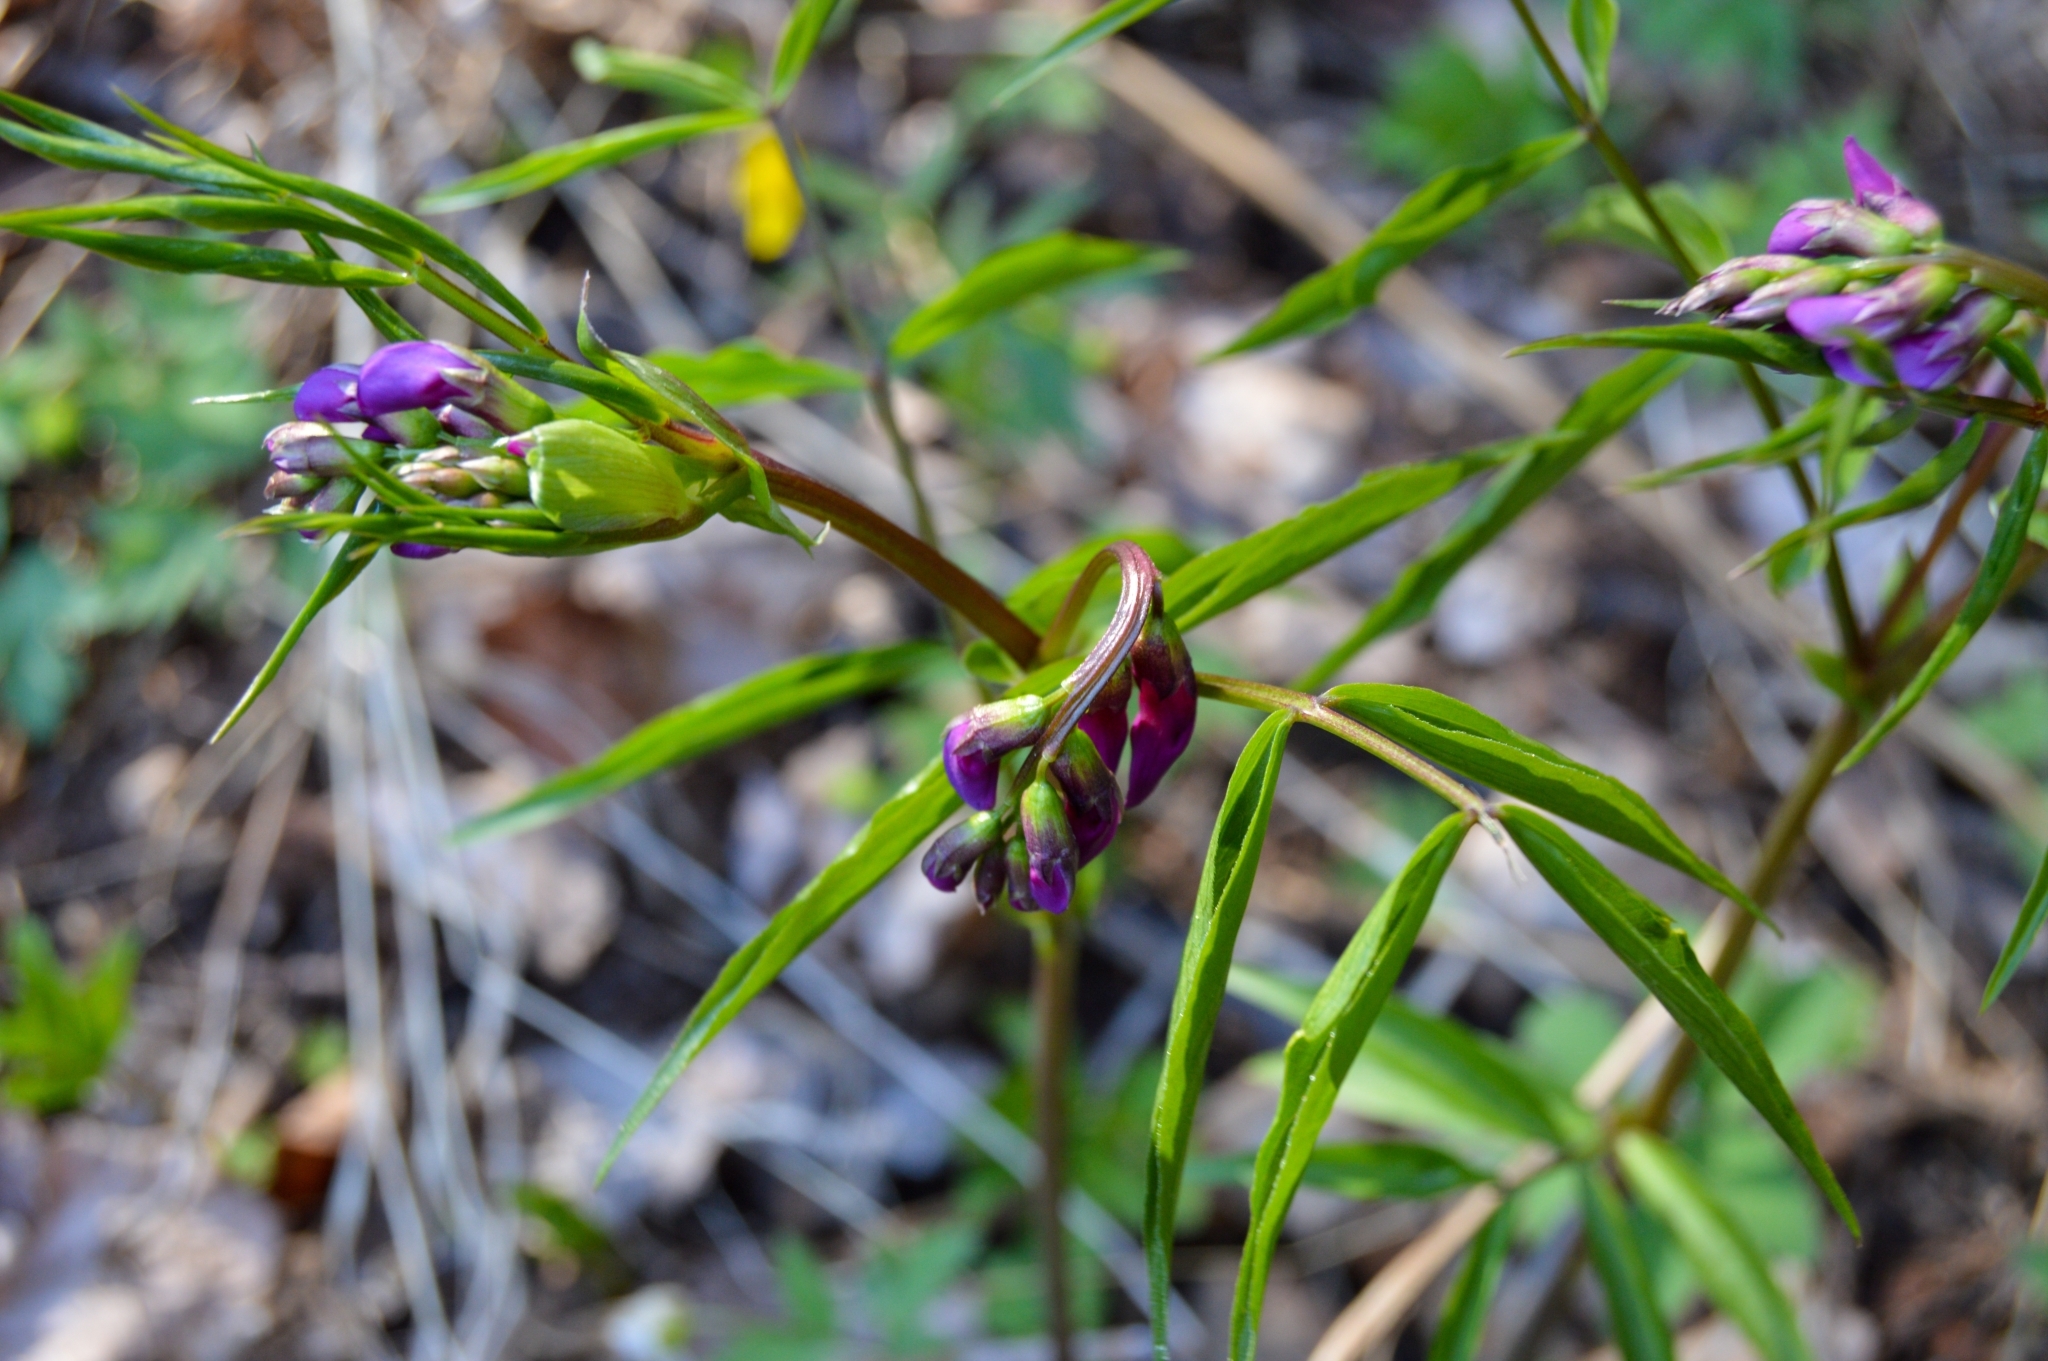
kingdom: Plantae
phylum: Tracheophyta
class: Magnoliopsida
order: Fabales
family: Fabaceae
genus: Lathyrus
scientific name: Lathyrus vernus
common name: Spring pea
